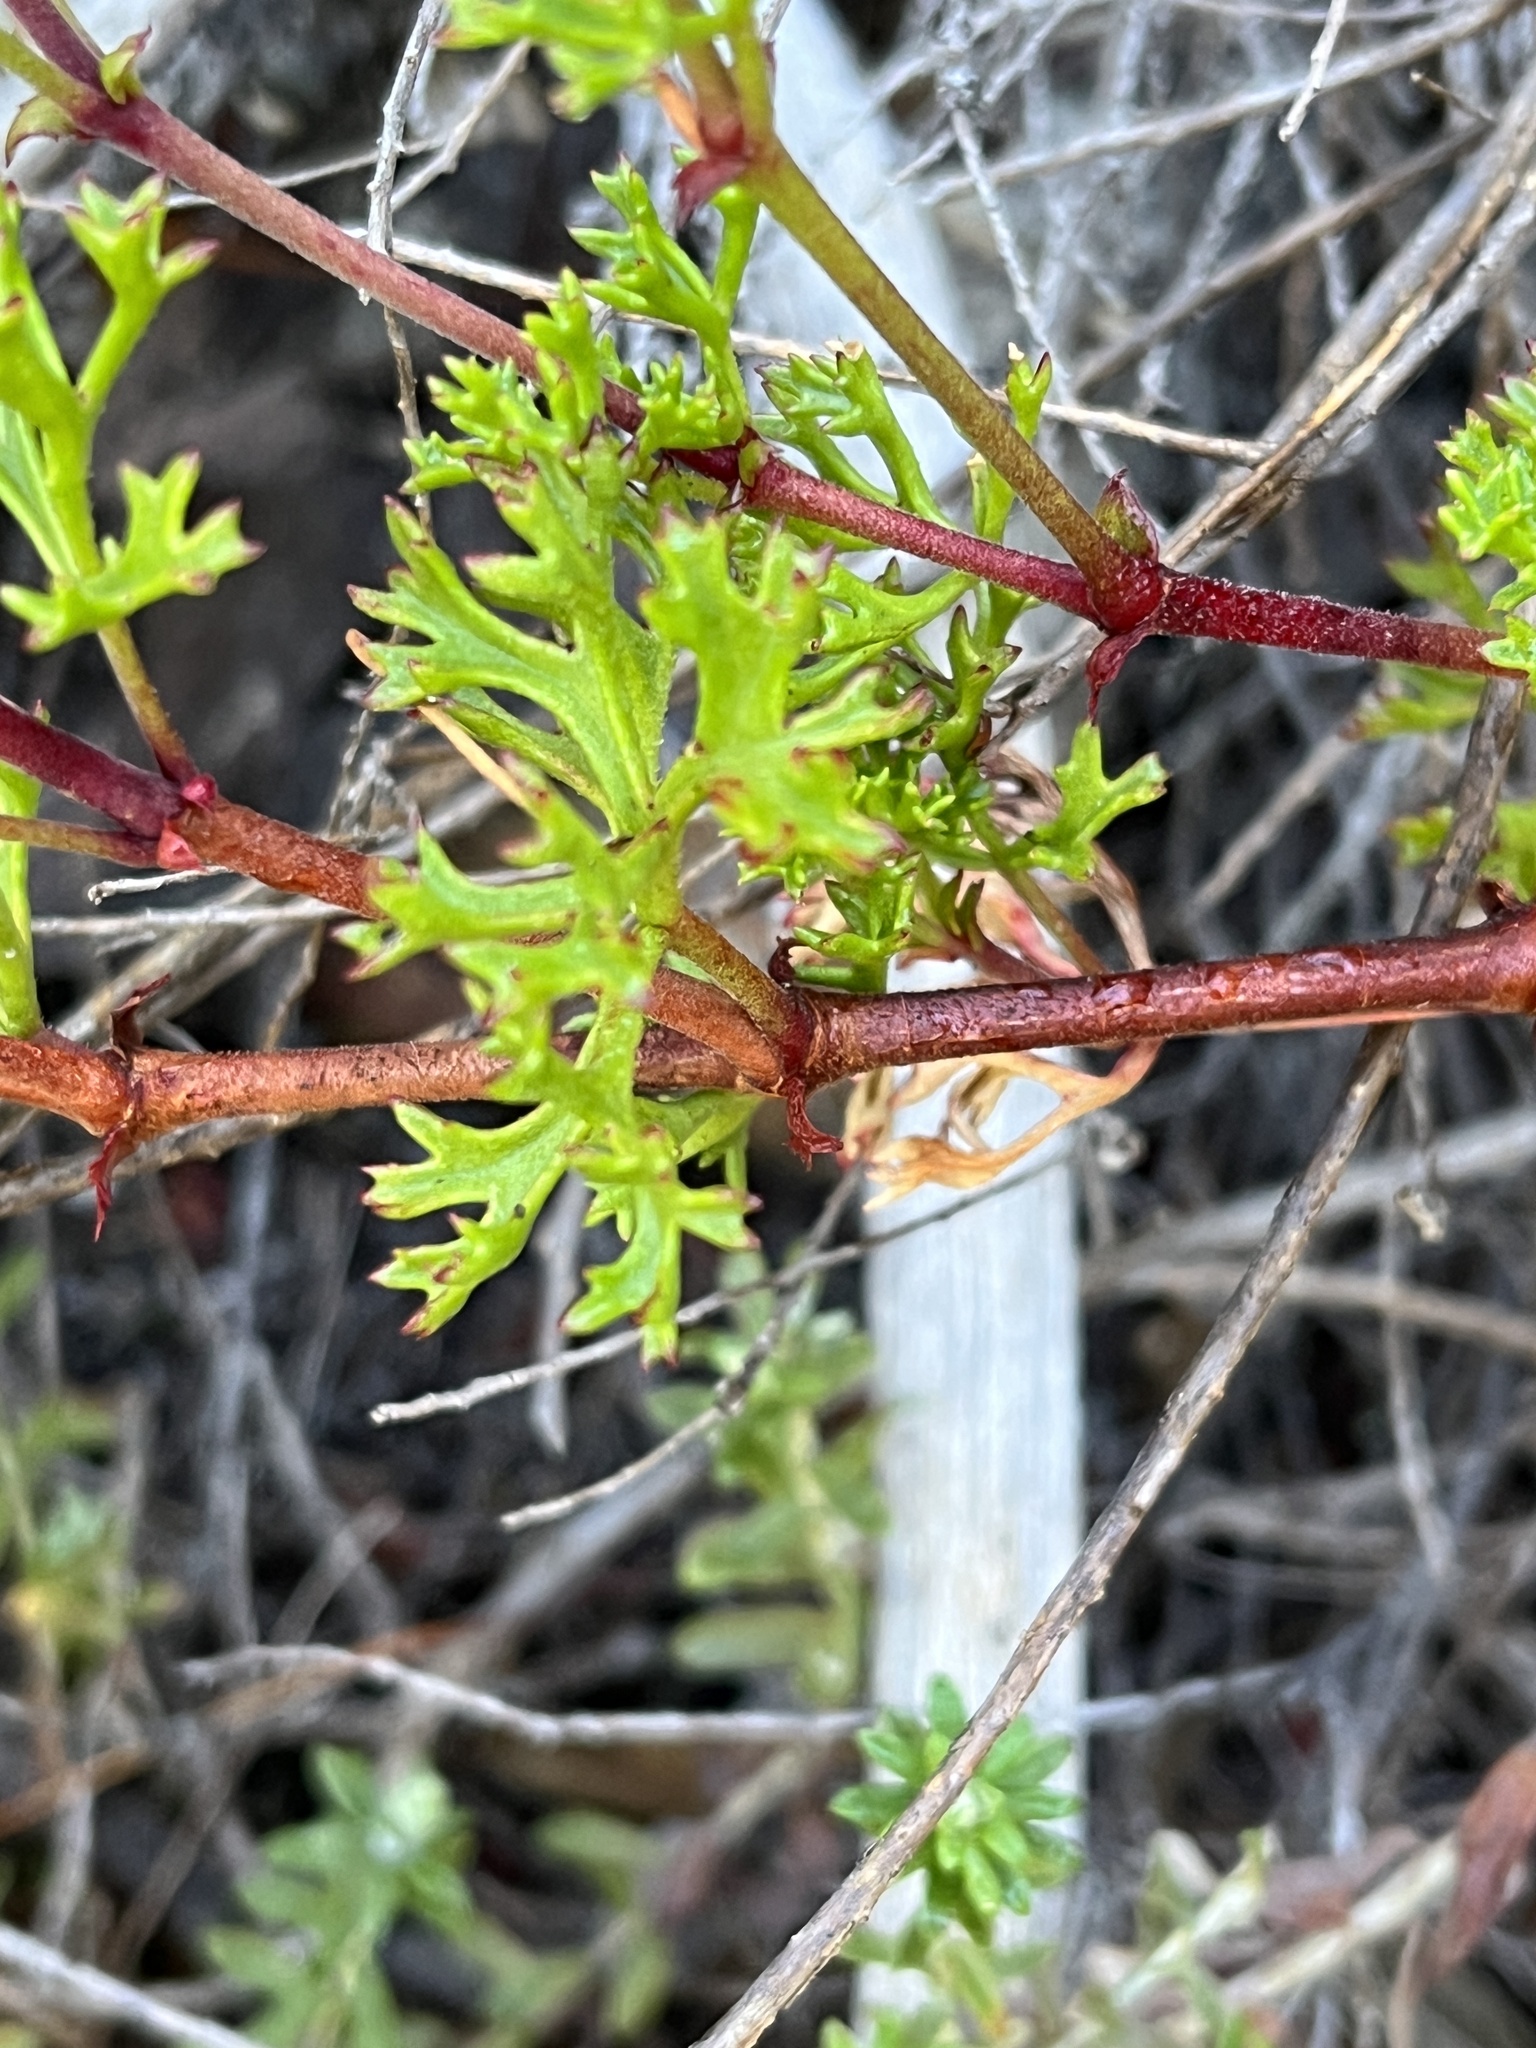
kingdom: Plantae
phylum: Tracheophyta
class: Magnoliopsida
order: Geraniales
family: Geraniaceae
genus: Pelargonium
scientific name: Pelargonium fruticosum
